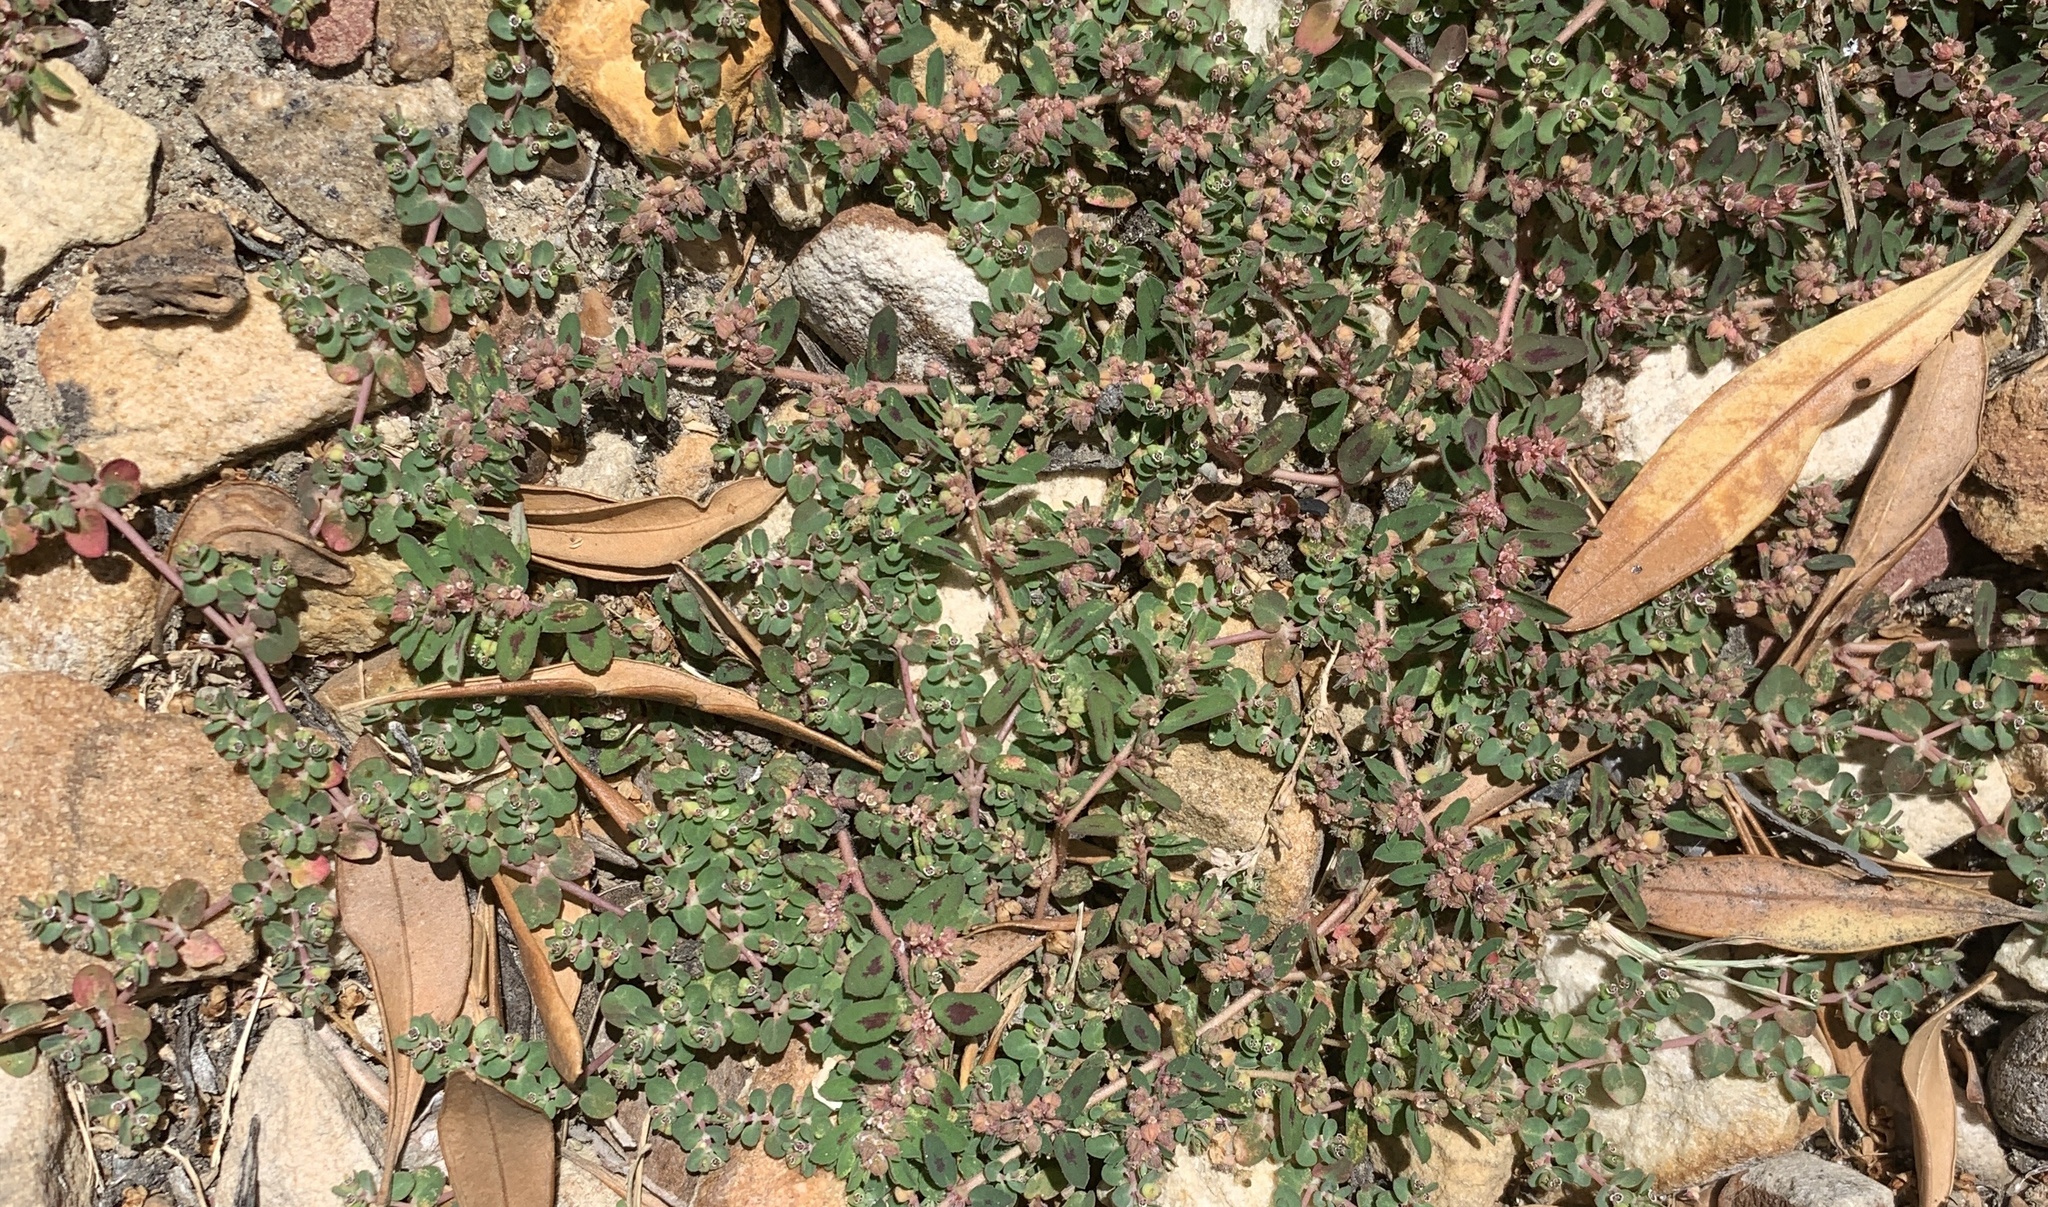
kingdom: Plantae
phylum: Tracheophyta
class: Magnoliopsida
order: Malpighiales
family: Euphorbiaceae
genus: Euphorbia
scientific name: Euphorbia serpens
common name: Matted sandmat
